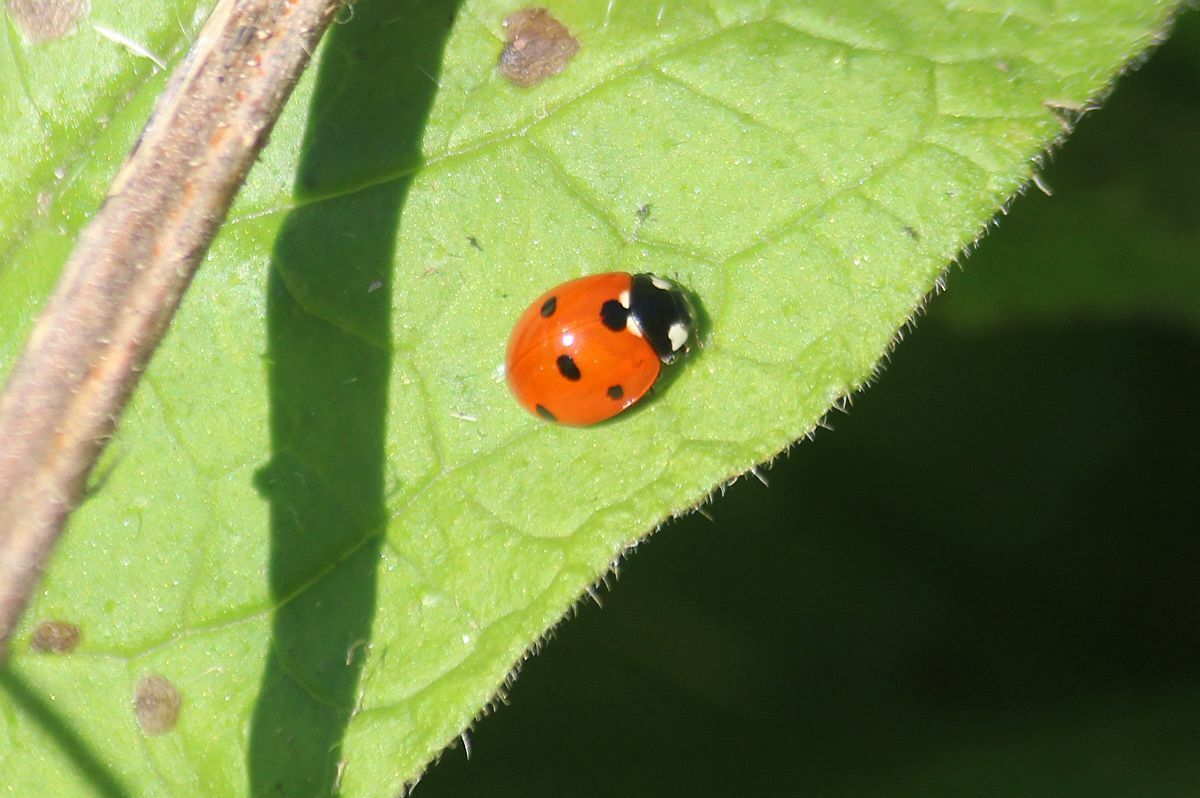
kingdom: Animalia
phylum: Arthropoda
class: Insecta
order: Coleoptera
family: Coccinellidae
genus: Coccinella
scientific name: Coccinella septempunctata
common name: Sevenspotted lady beetle
